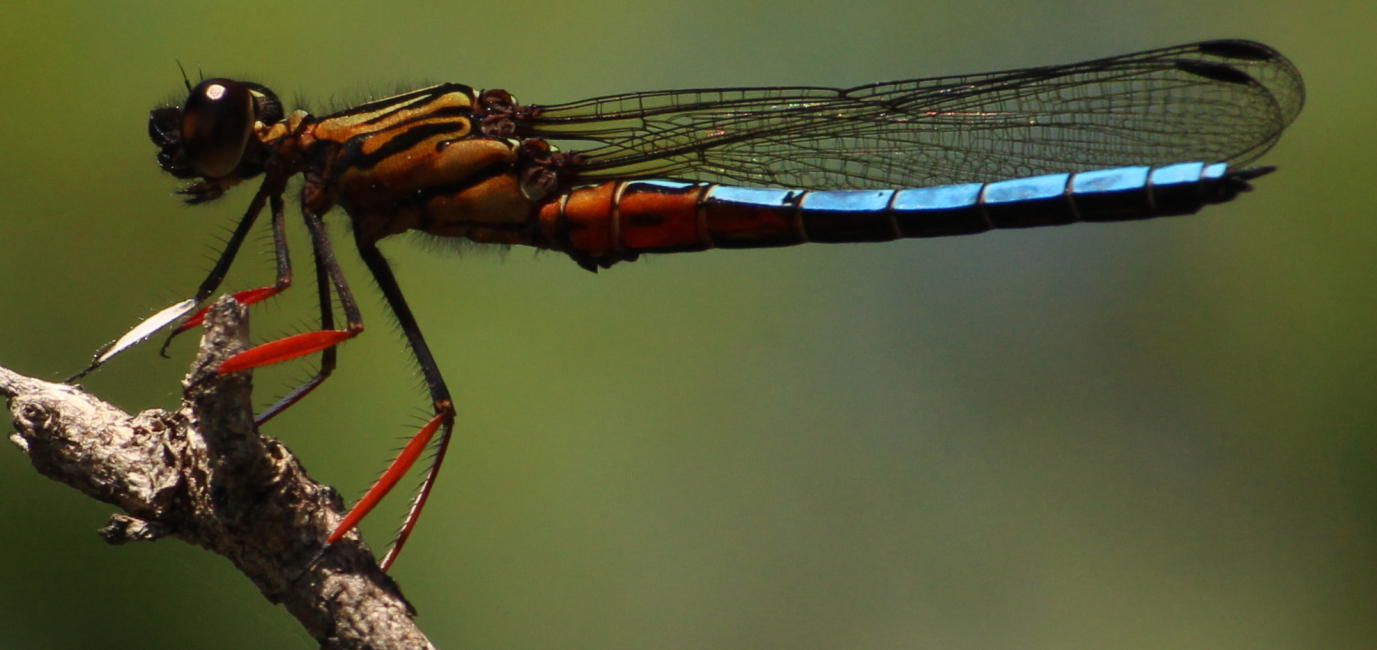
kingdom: Animalia
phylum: Arthropoda
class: Insecta
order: Odonata
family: Chlorocyphidae
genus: Platycypha
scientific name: Platycypha caligata
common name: Dancing jewel
